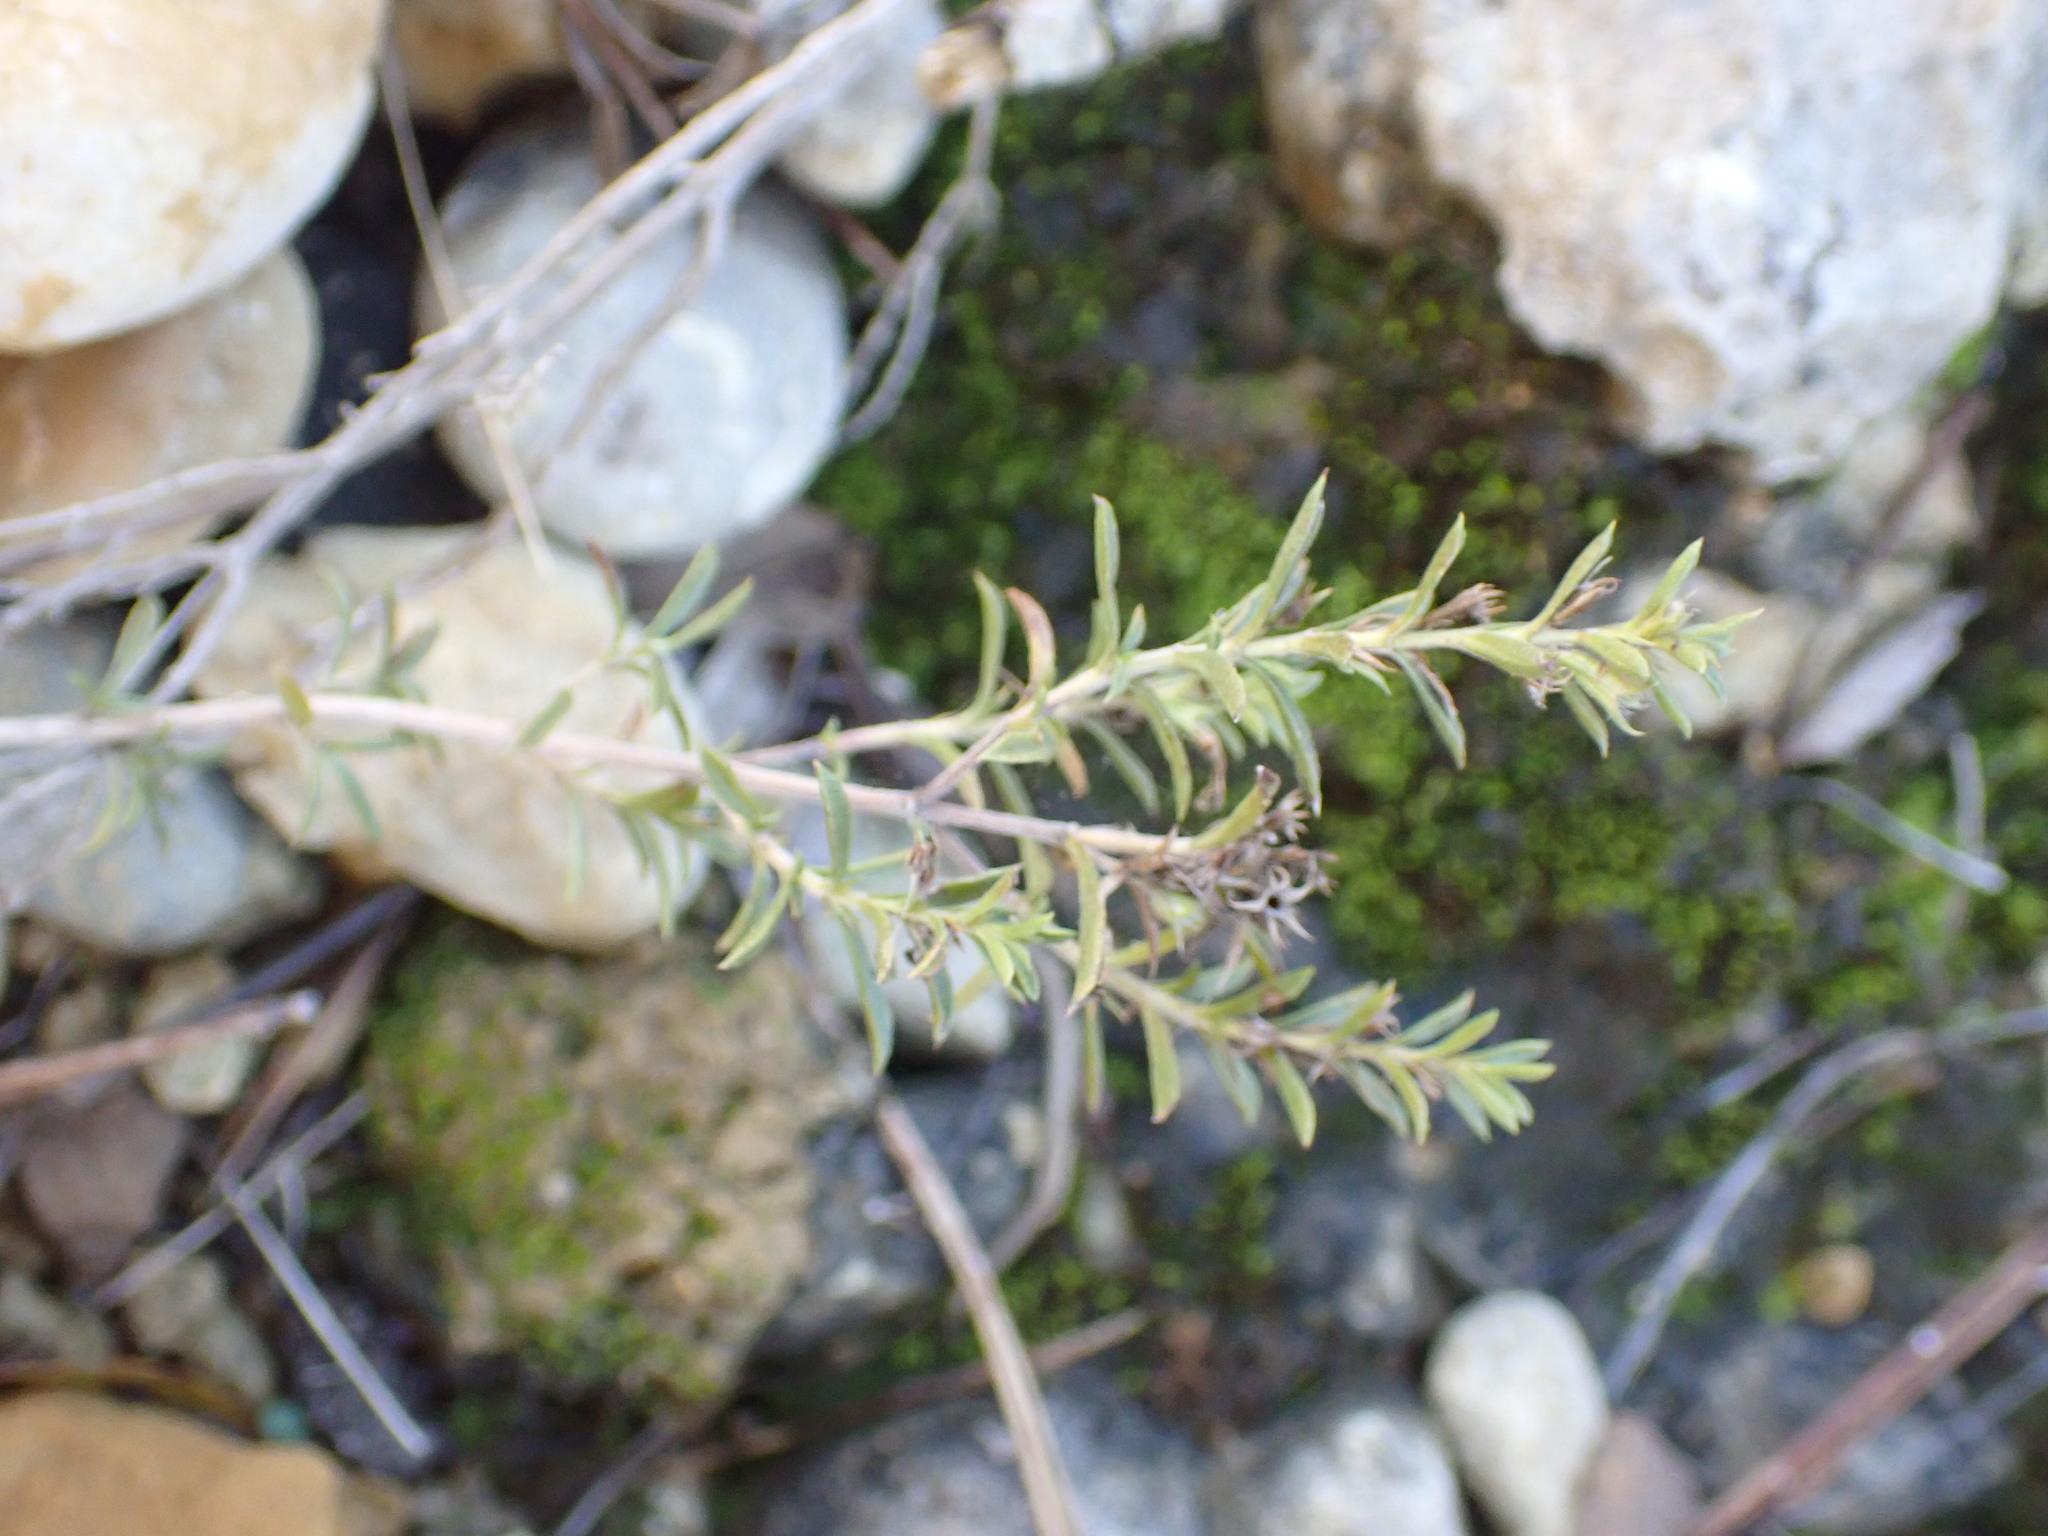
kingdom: Plantae
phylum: Tracheophyta
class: Magnoliopsida
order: Lamiales
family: Lamiaceae
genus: Satureja
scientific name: Satureja montana
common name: Winter savory
